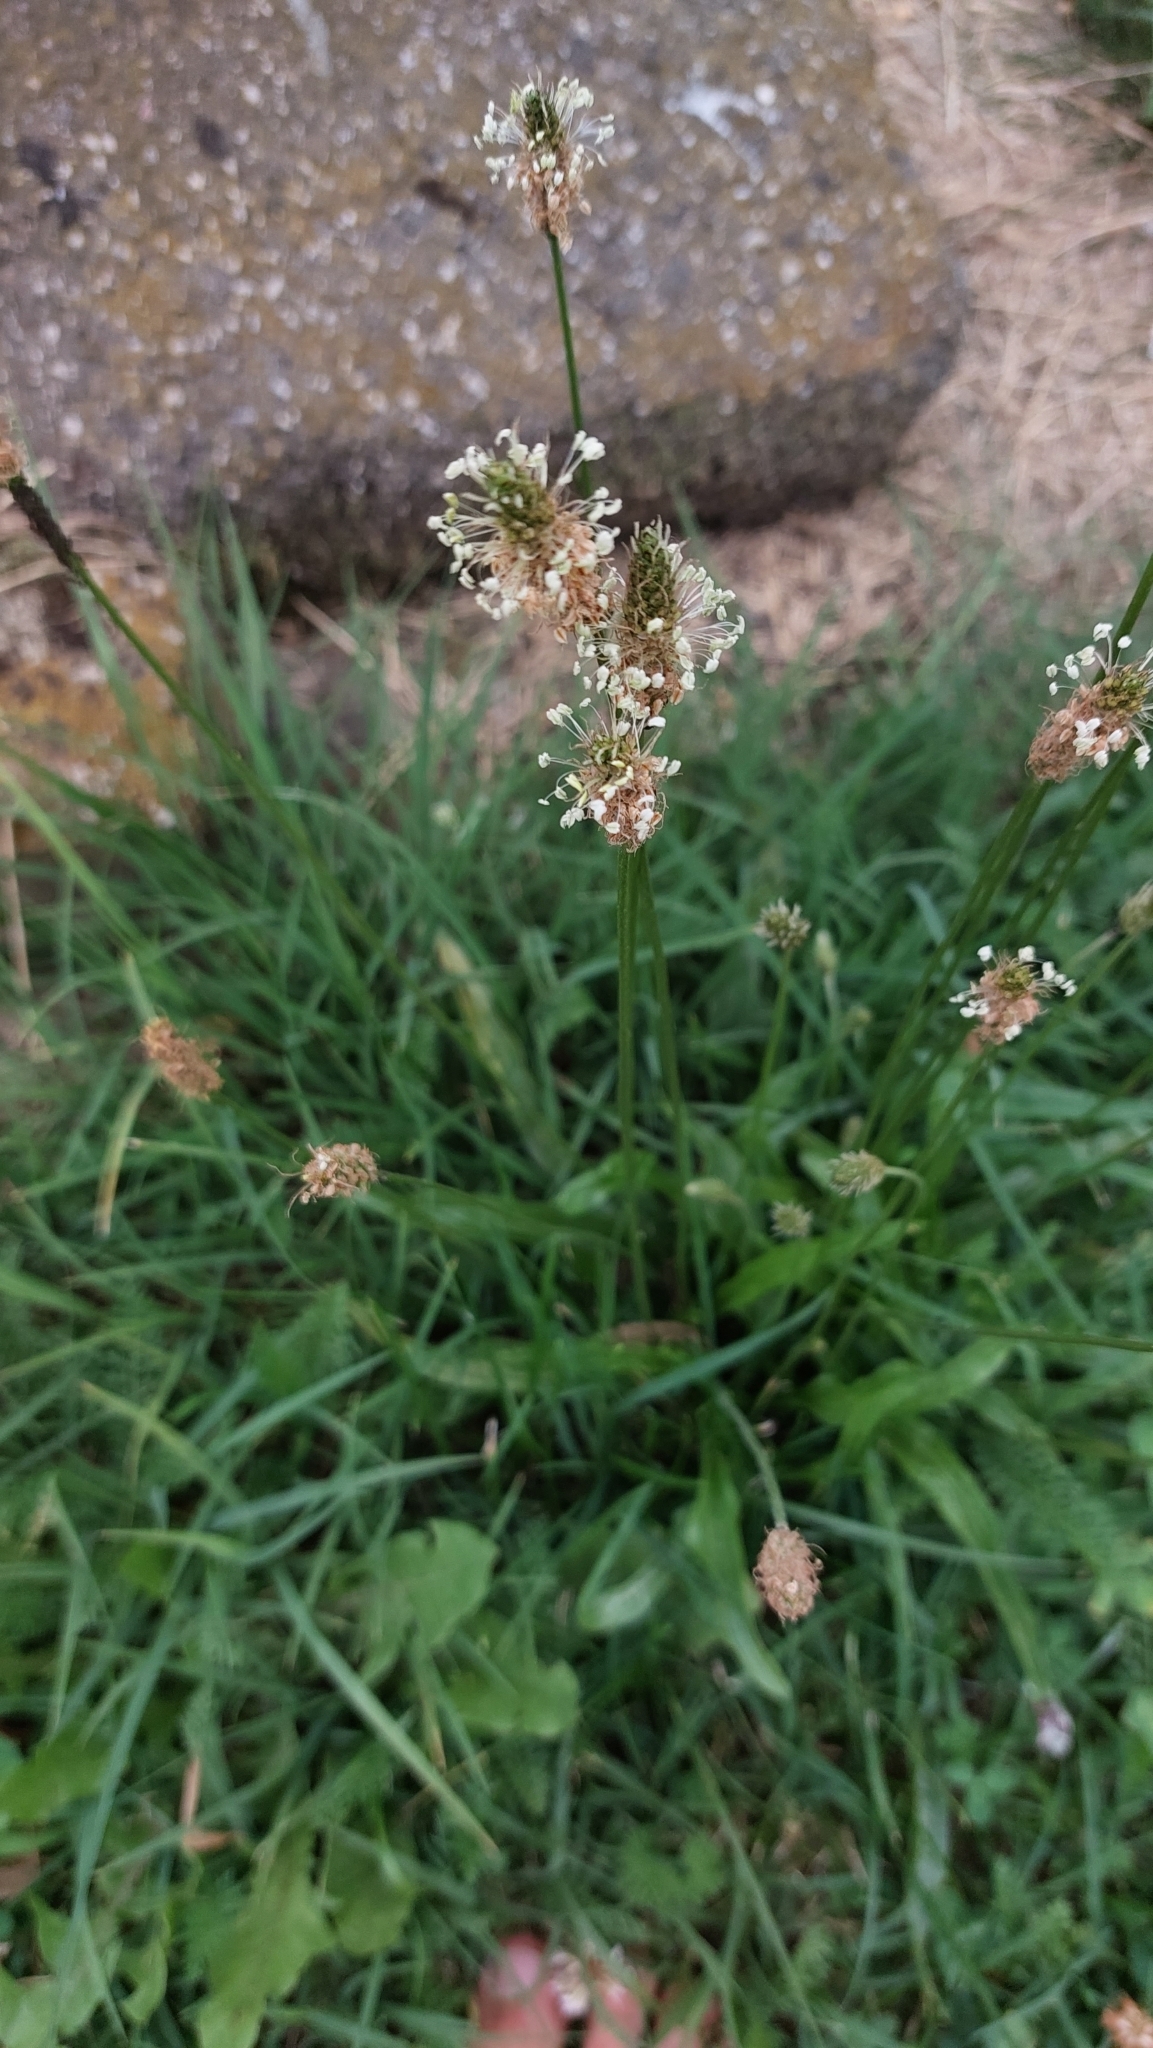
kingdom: Plantae
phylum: Tracheophyta
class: Magnoliopsida
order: Lamiales
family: Plantaginaceae
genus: Plantago
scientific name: Plantago lanceolata
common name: Ribwort plantain
